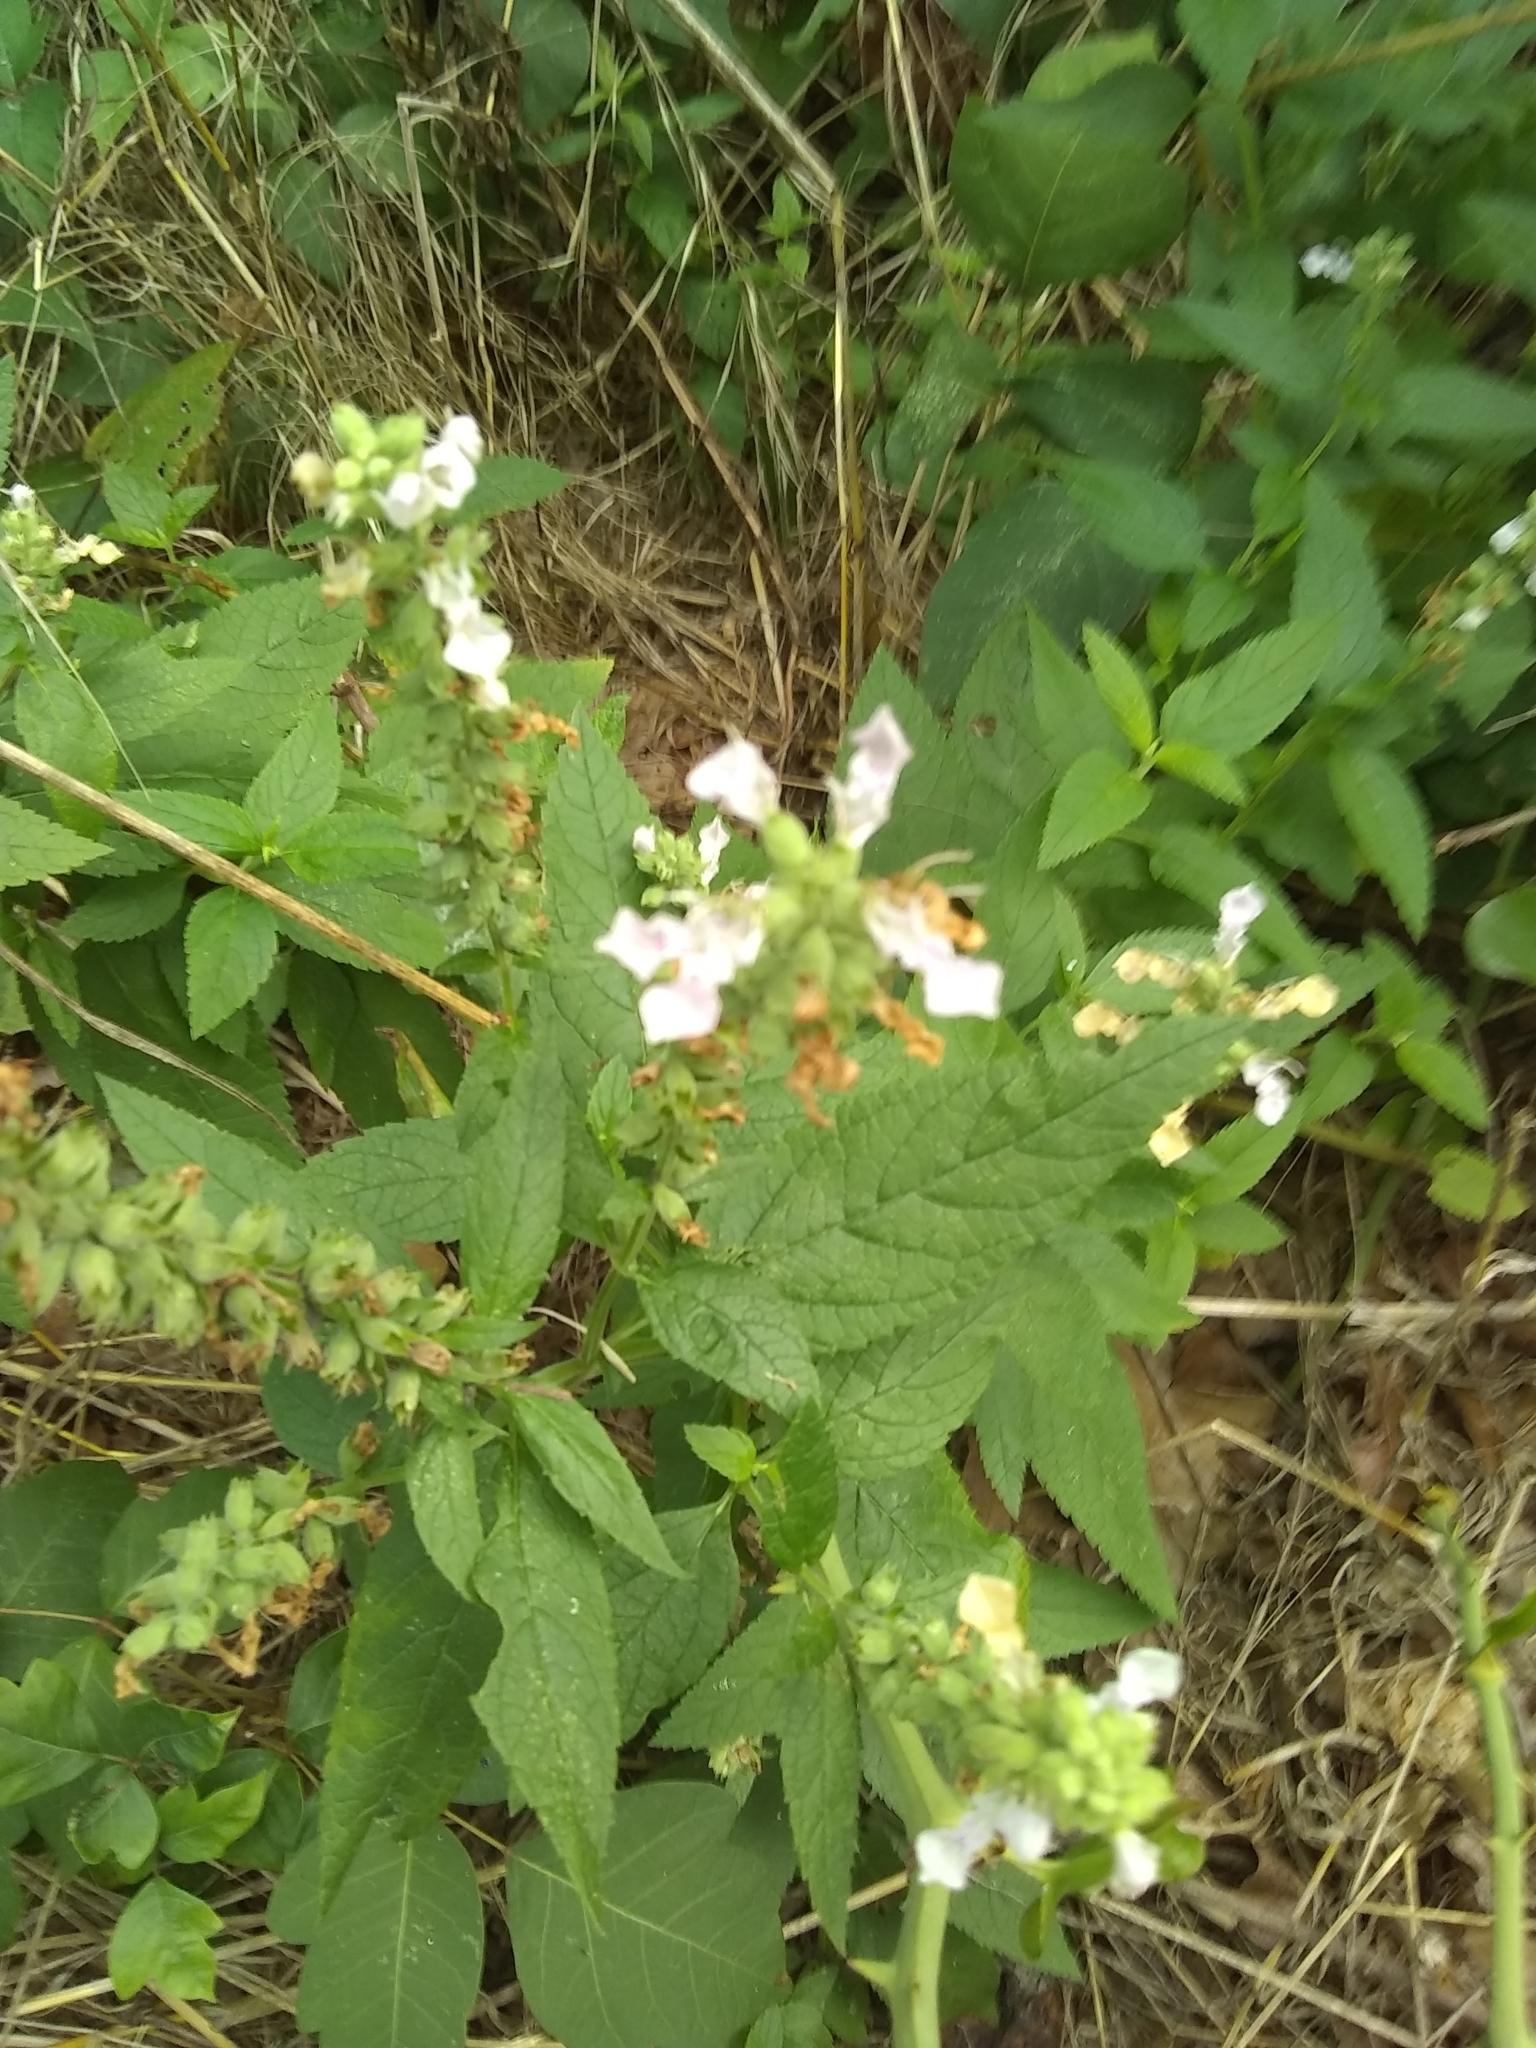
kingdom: Plantae
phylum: Tracheophyta
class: Magnoliopsida
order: Lamiales
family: Lamiaceae
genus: Teucrium
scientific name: Teucrium canadense
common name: American germander
